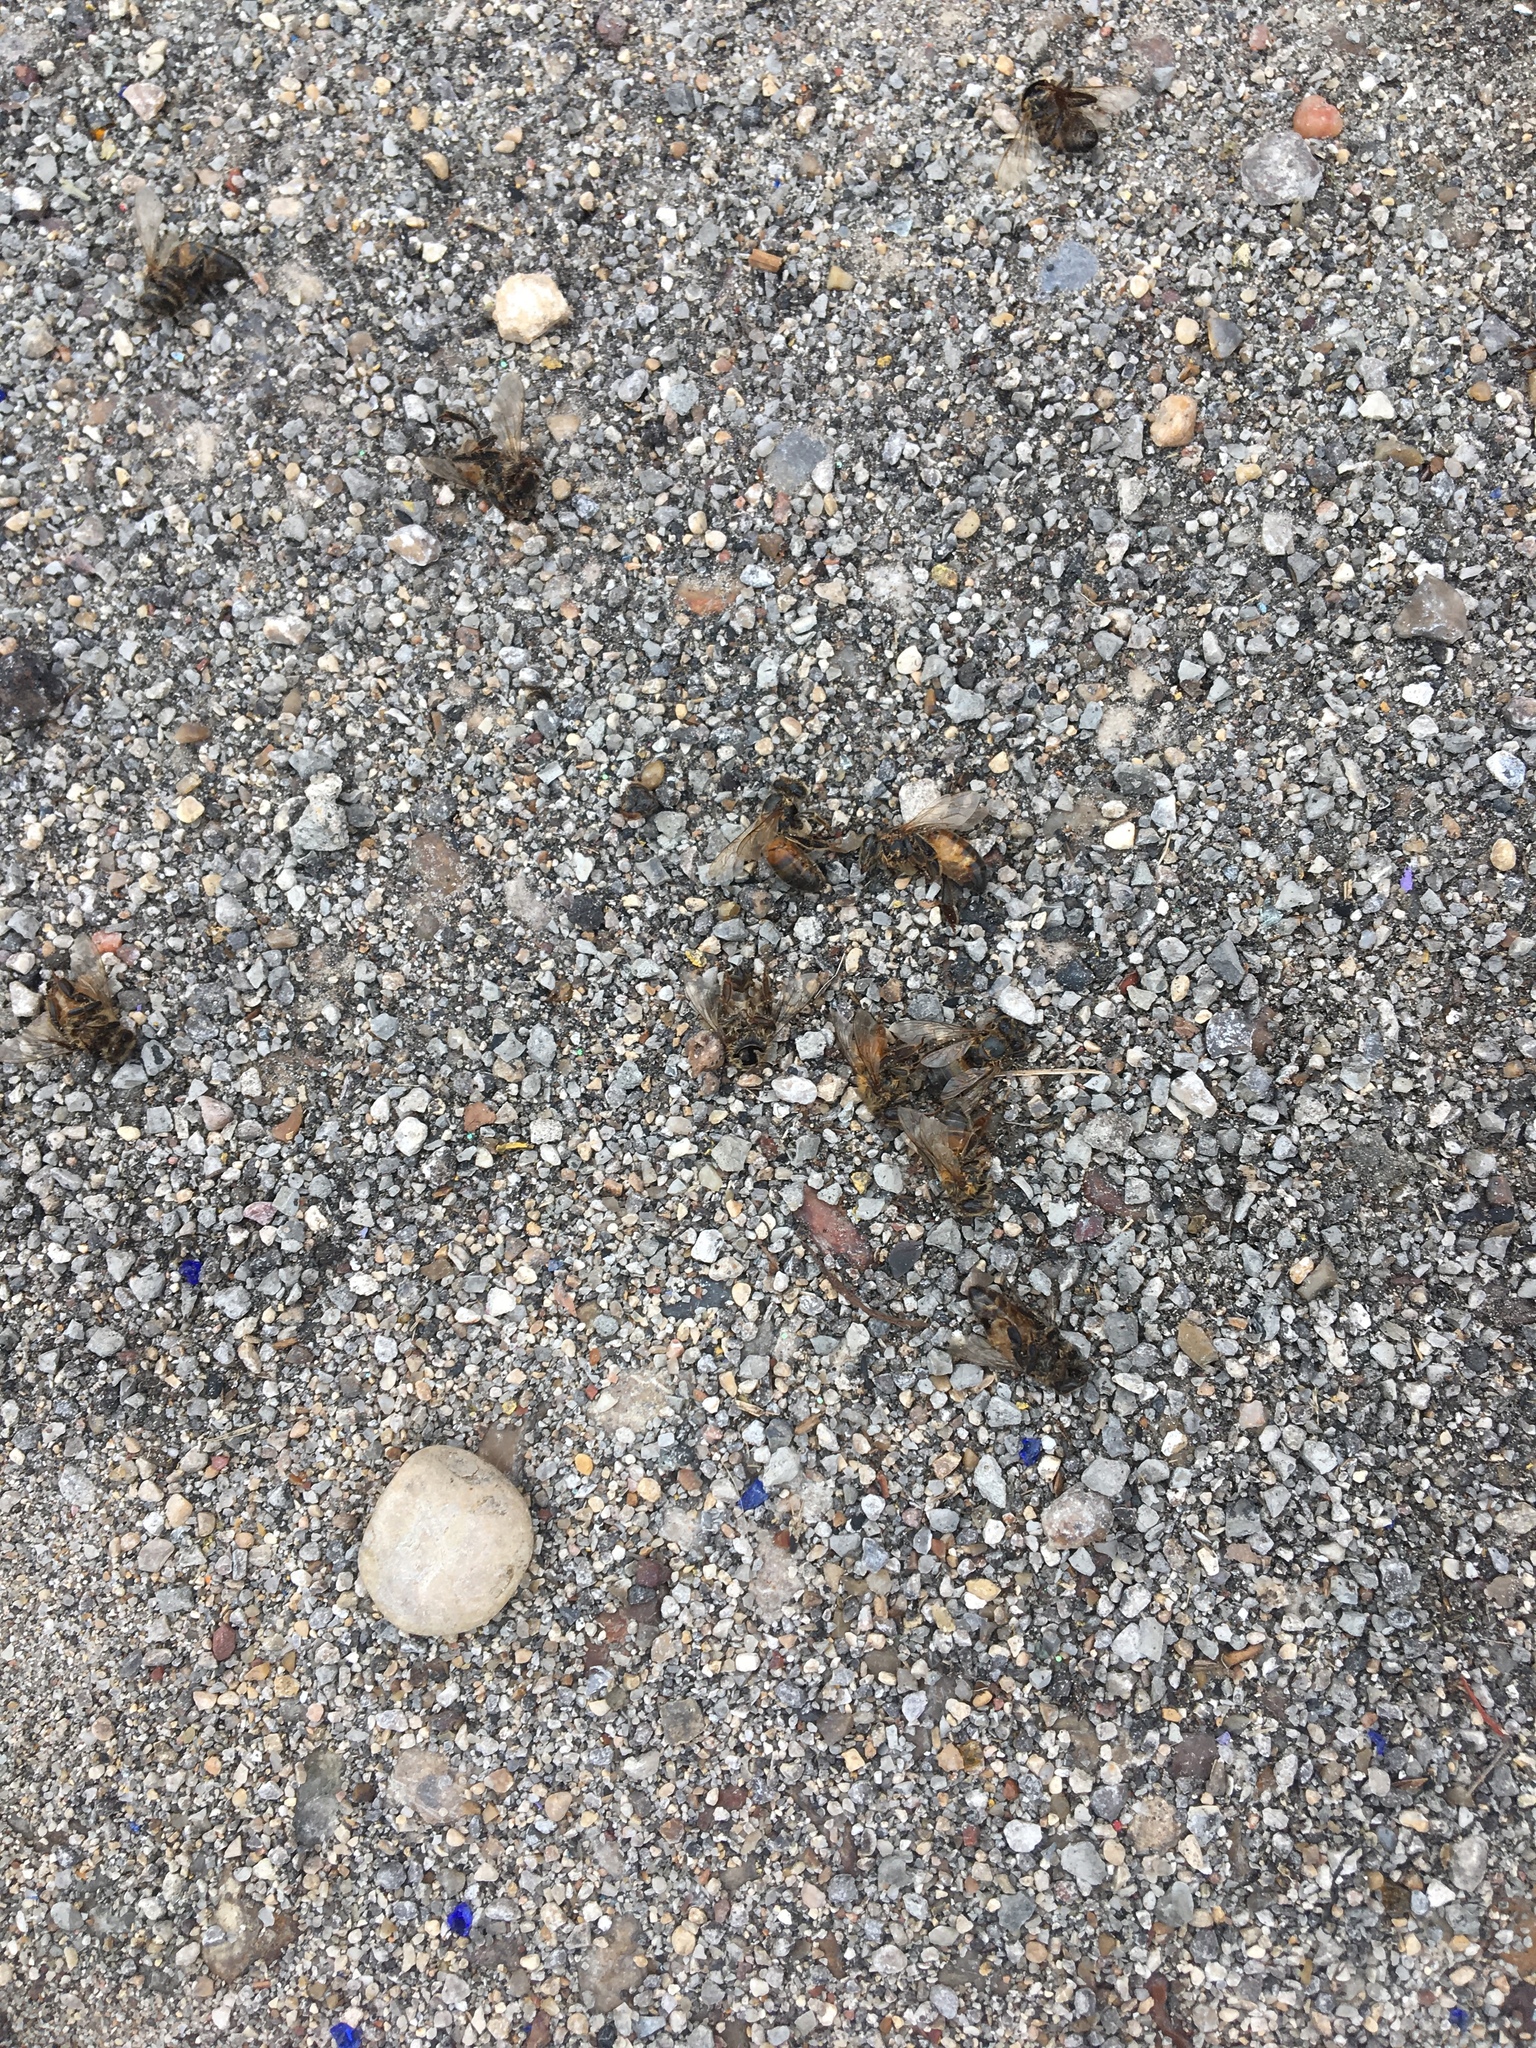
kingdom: Animalia
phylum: Arthropoda
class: Insecta
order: Hymenoptera
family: Apidae
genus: Apis
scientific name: Apis mellifera
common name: Honey bee
